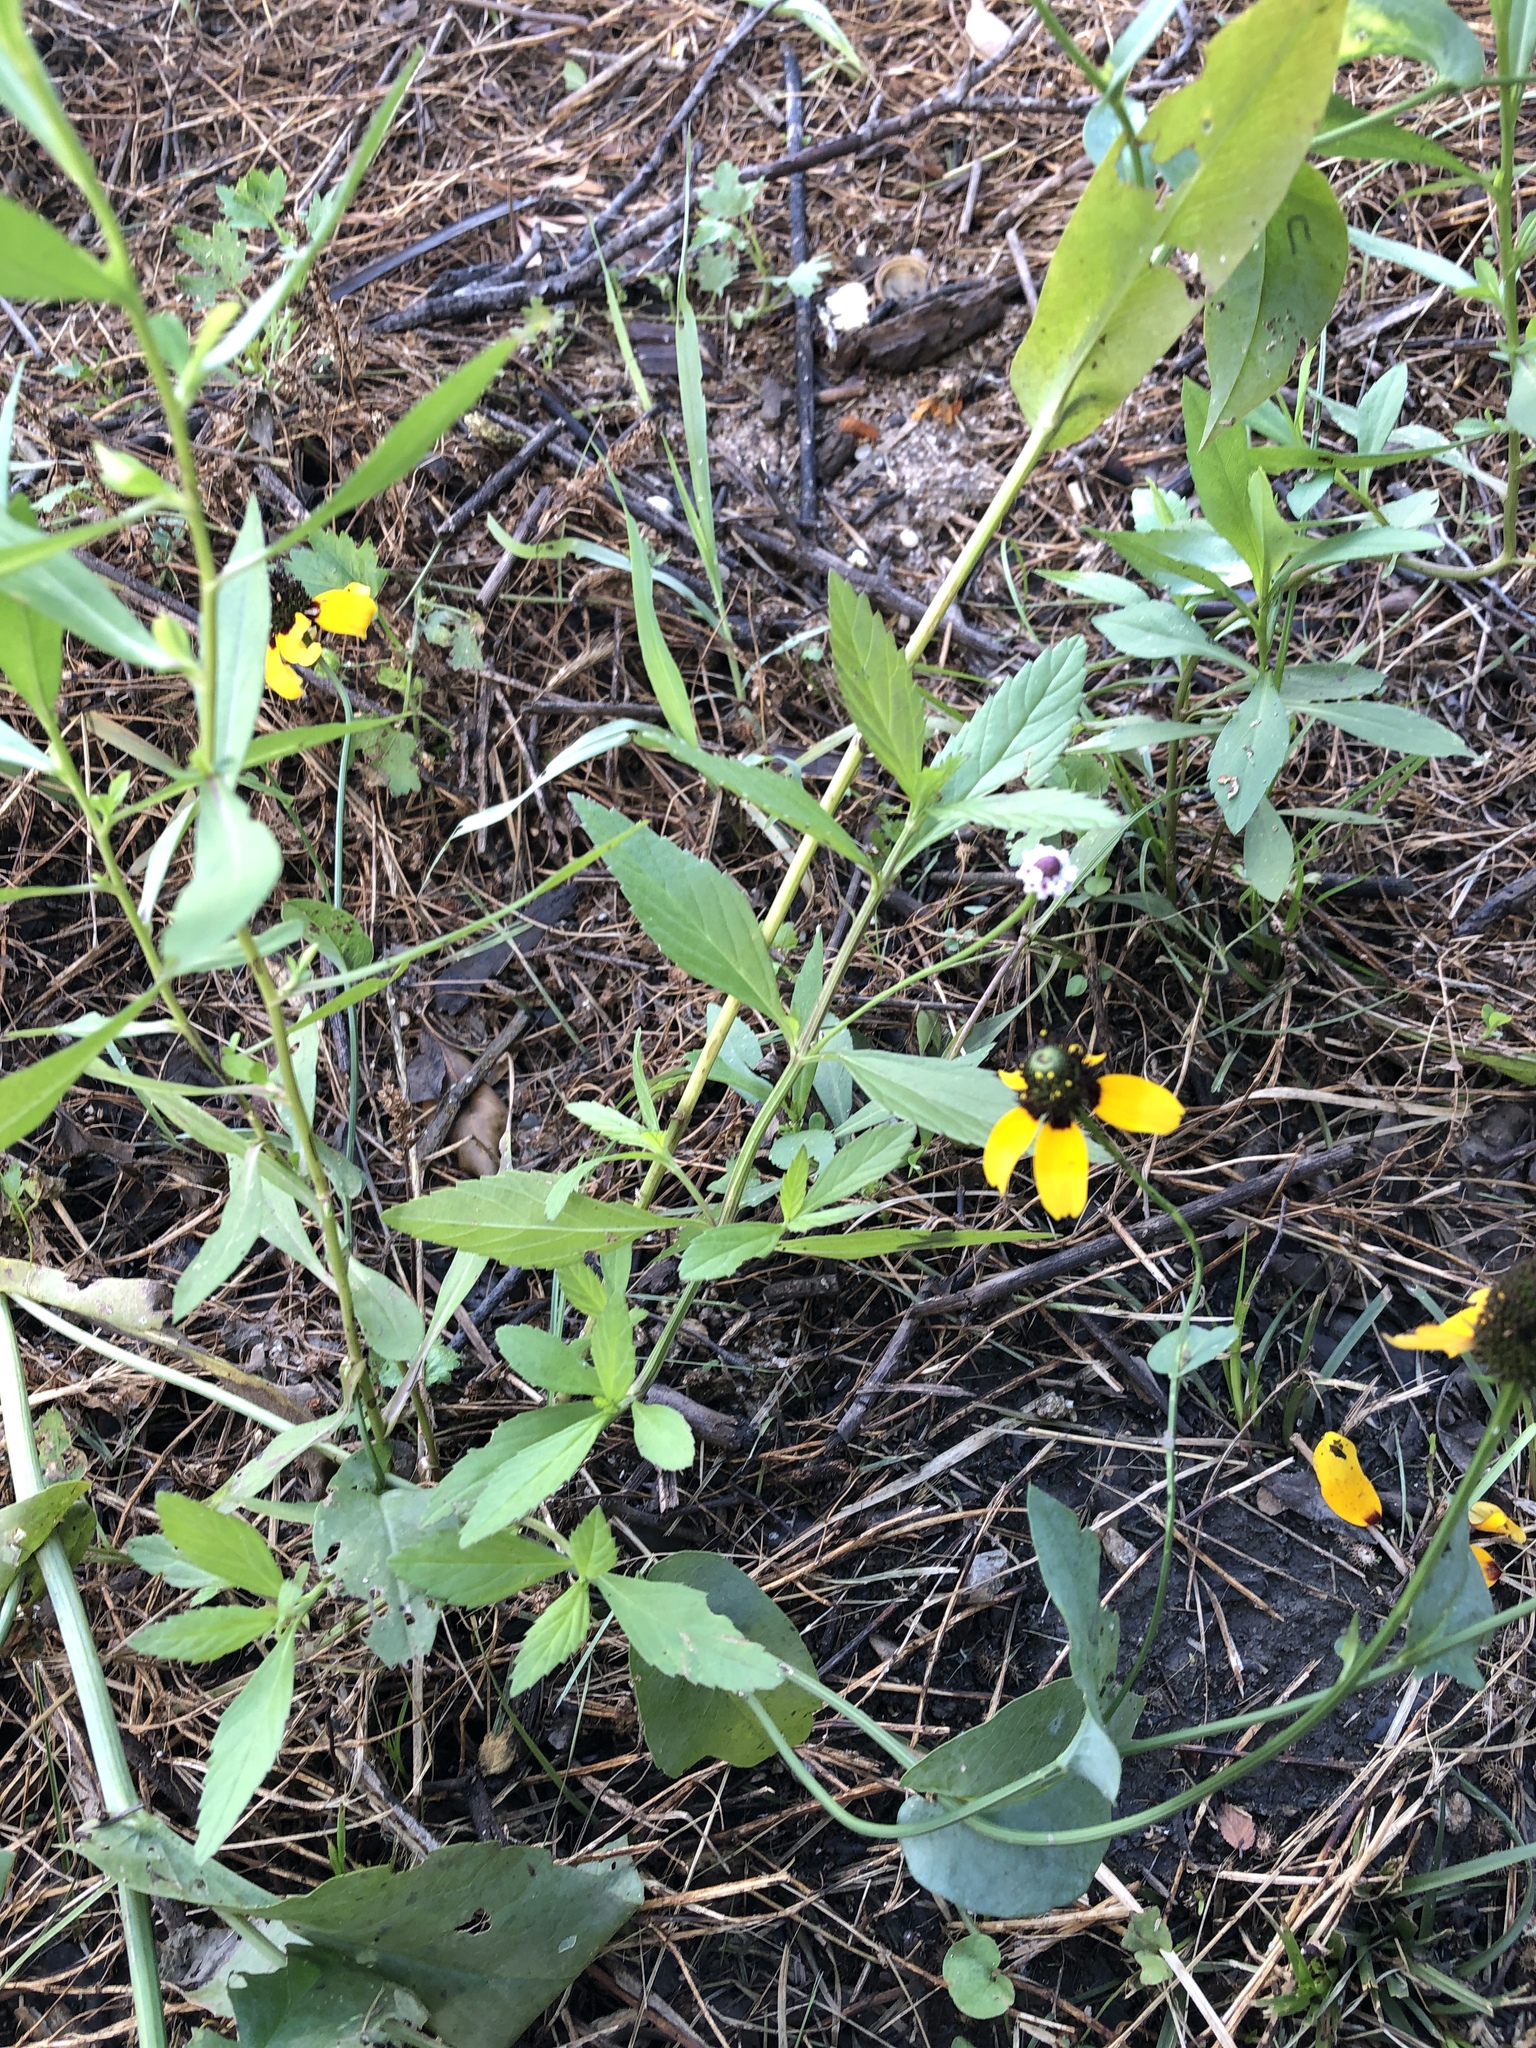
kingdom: Plantae
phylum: Tracheophyta
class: Magnoliopsida
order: Lamiales
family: Verbenaceae
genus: Phyla
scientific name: Phyla lanceolata
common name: Northern fogfruit
